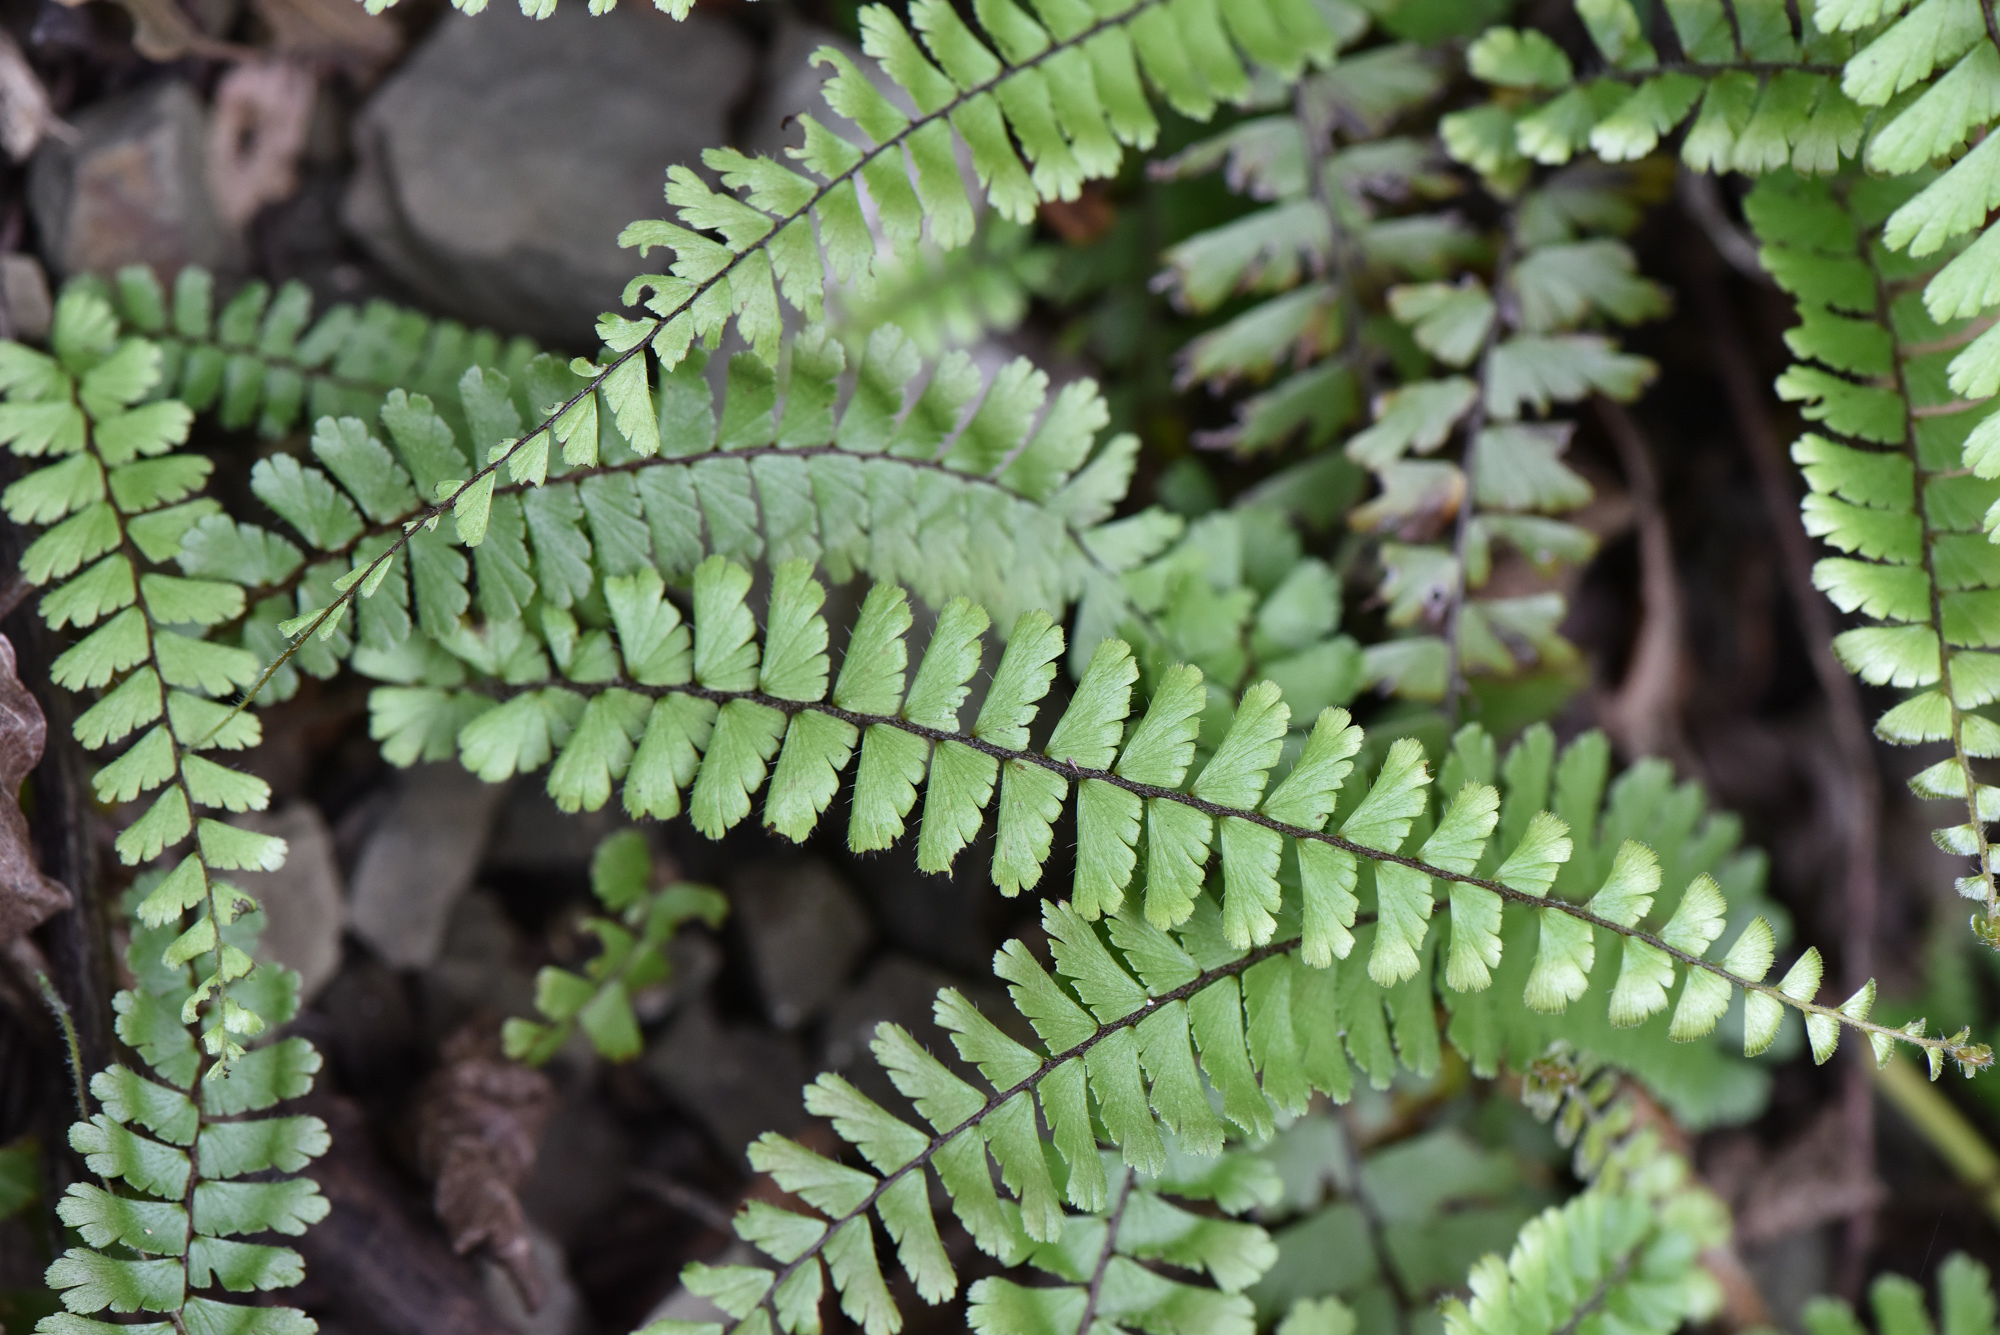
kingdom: Plantae
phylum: Tracheophyta
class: Polypodiopsida
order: Polypodiales
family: Pteridaceae
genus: Adiantum
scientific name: Adiantum caudatum
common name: Tailed maidenhair
